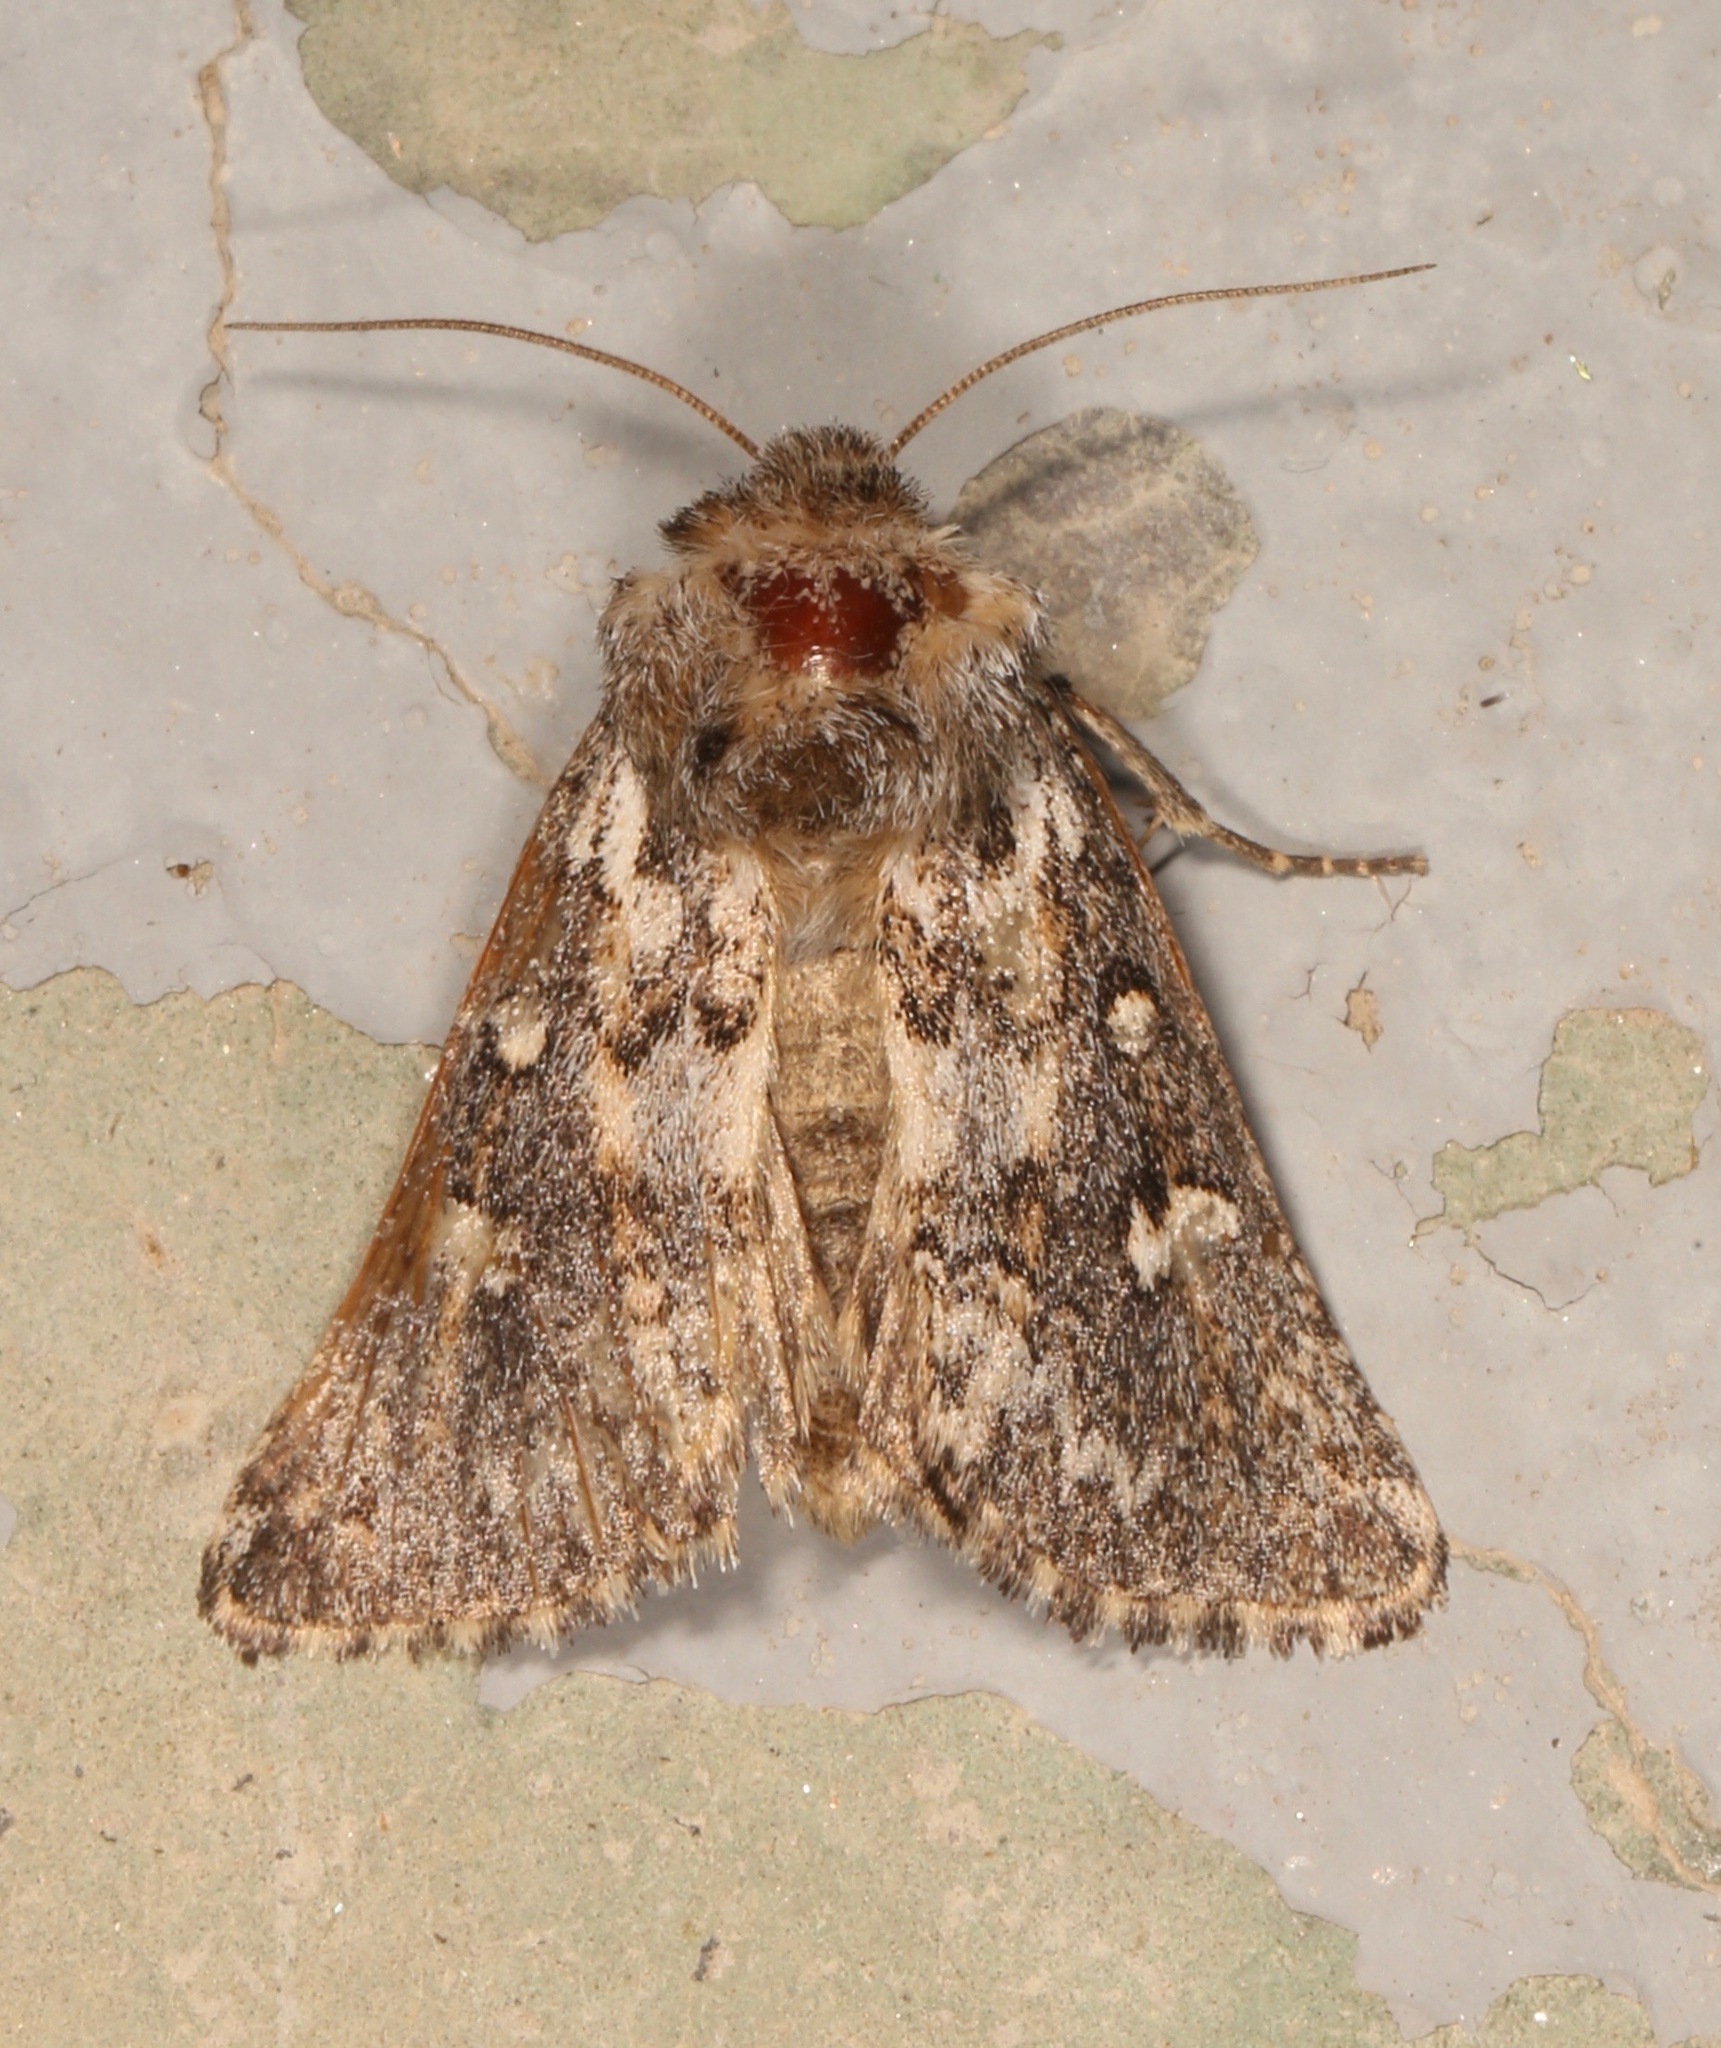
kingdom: Animalia
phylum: Arthropoda
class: Insecta
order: Lepidoptera
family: Noctuidae
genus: Fala
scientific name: Fala ptychophora
